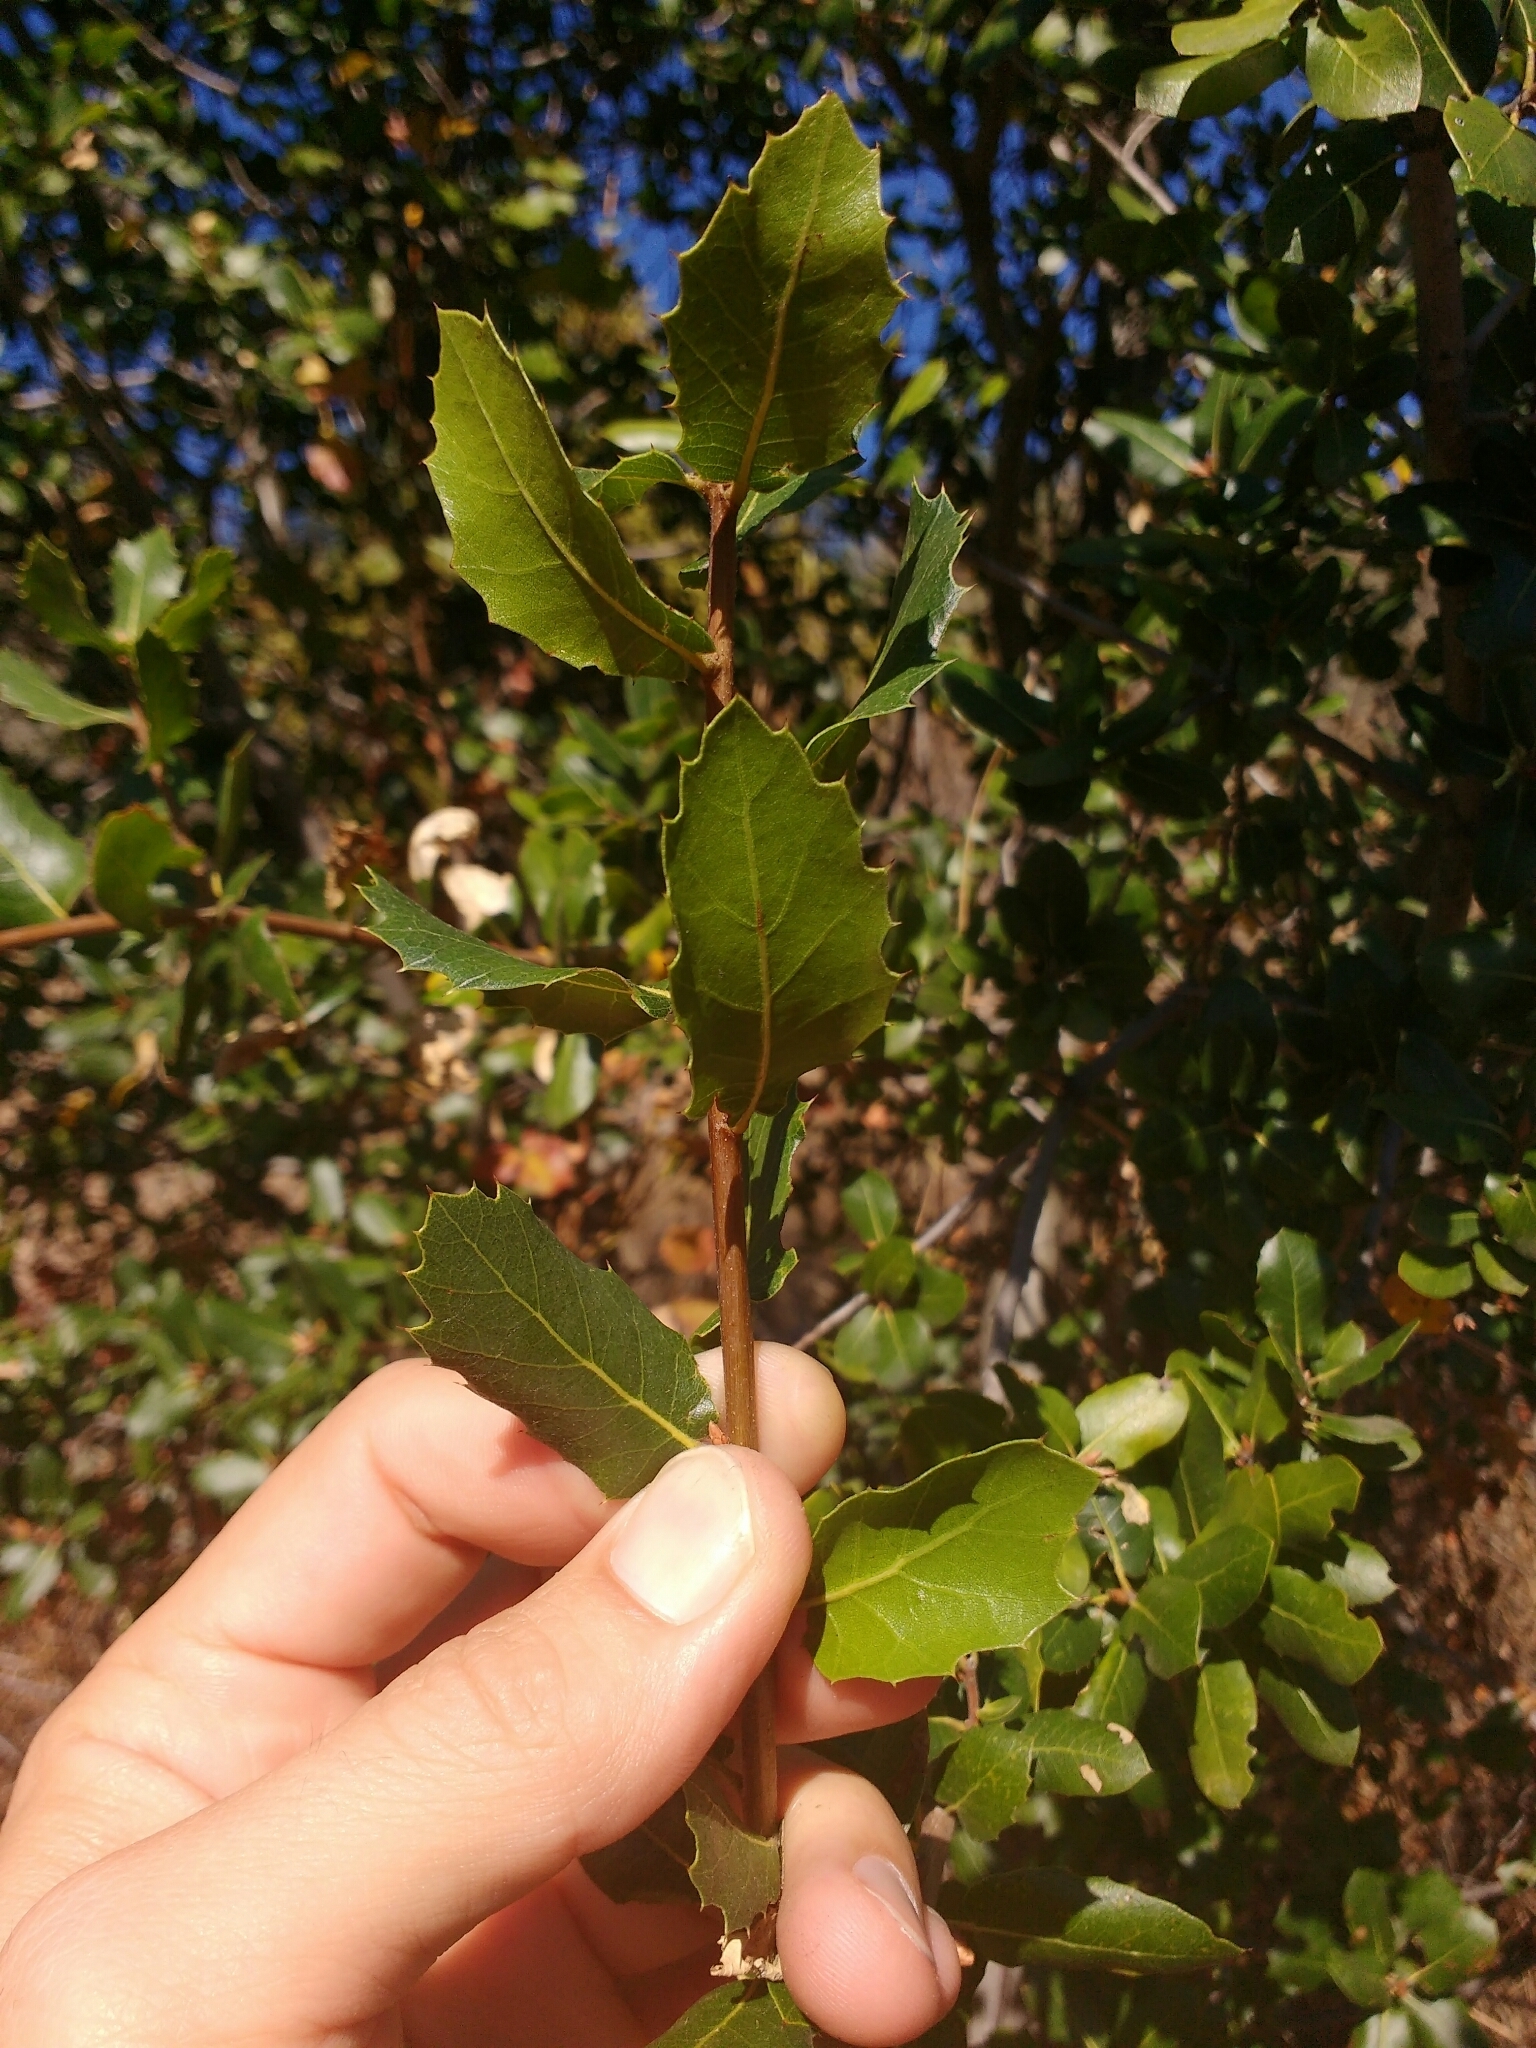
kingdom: Plantae
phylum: Tracheophyta
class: Magnoliopsida
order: Fagales
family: Fagaceae
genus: Quercus
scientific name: Quercus wislizeni
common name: Interior live oak
